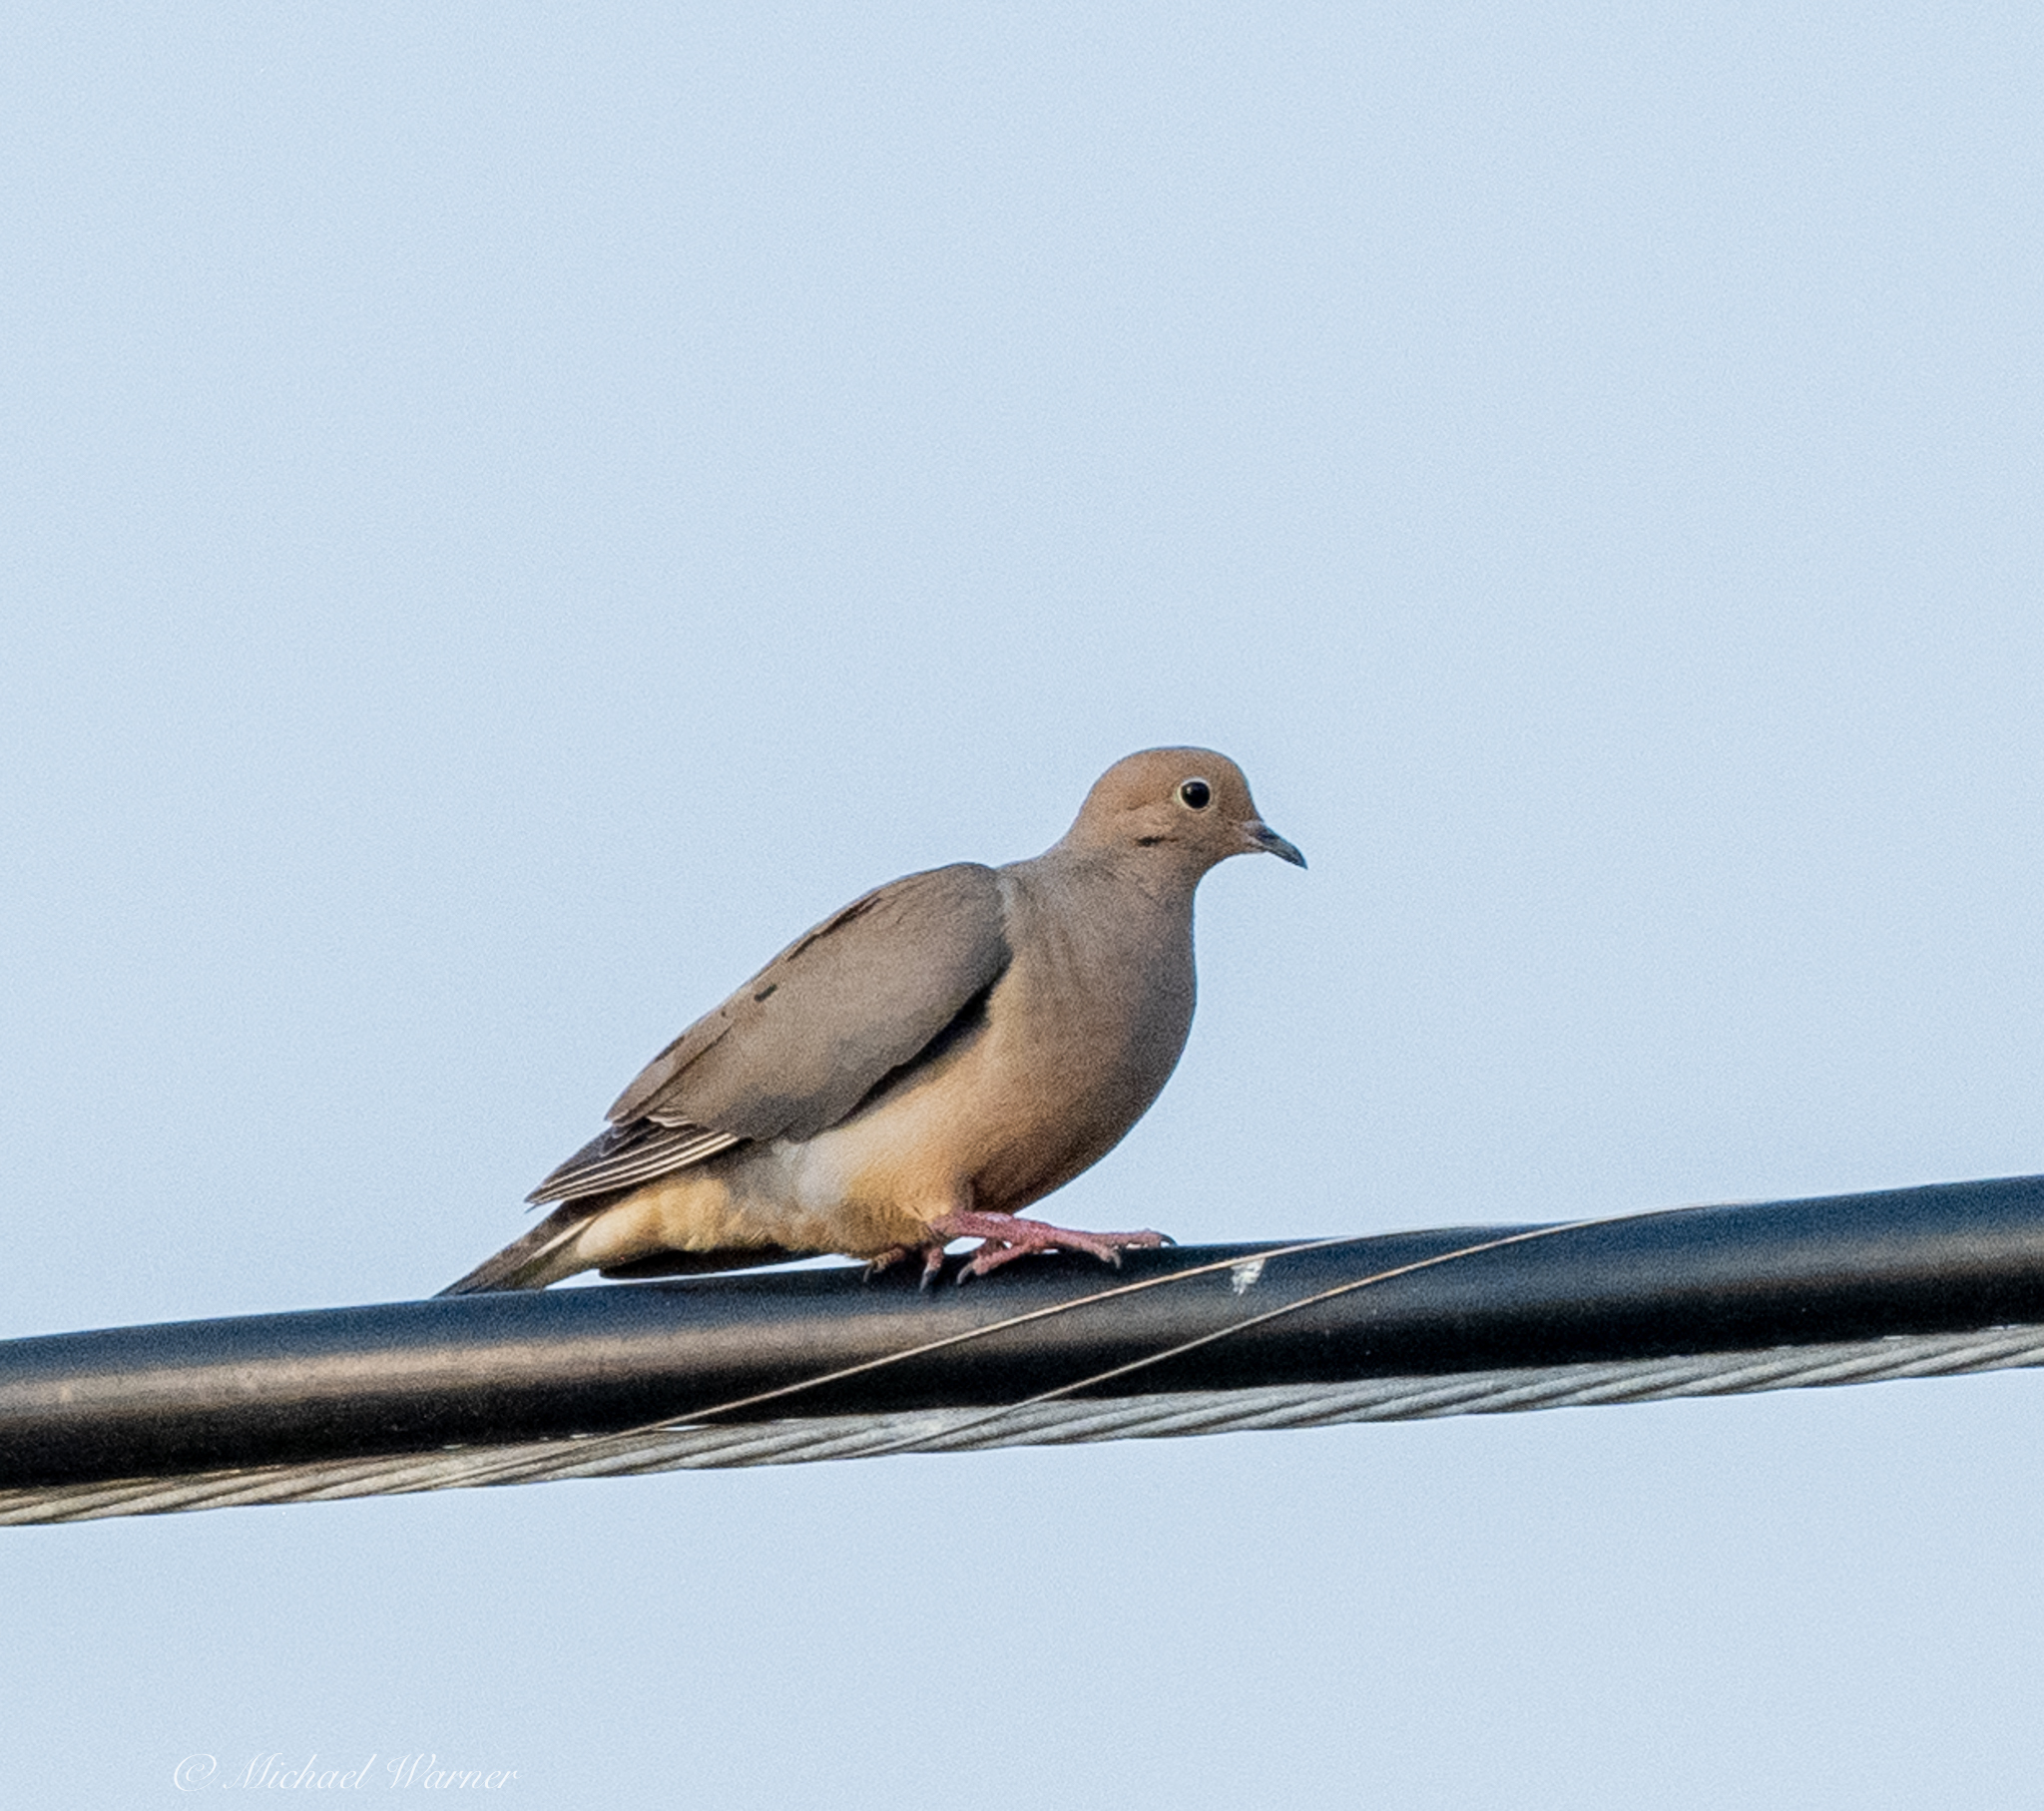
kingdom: Animalia
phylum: Chordata
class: Aves
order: Columbiformes
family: Columbidae
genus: Zenaida
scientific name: Zenaida macroura
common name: Mourning dove
